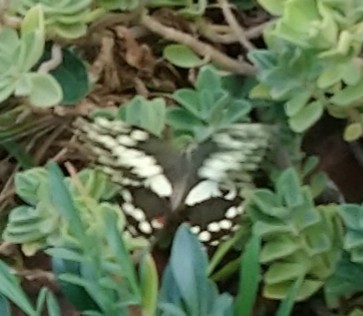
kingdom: Animalia
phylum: Arthropoda
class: Insecta
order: Lepidoptera
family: Papilionidae
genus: Papilio
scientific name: Papilio demodocus
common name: Christmas butterfly
